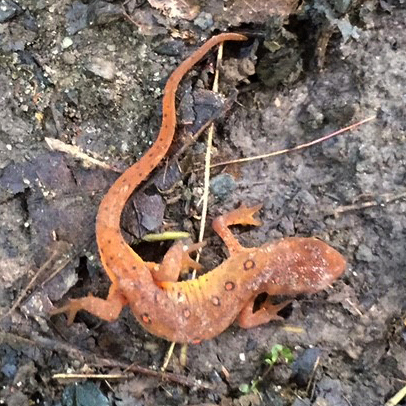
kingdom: Animalia
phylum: Chordata
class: Amphibia
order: Caudata
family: Salamandridae
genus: Notophthalmus
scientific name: Notophthalmus viridescens
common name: Eastern newt
